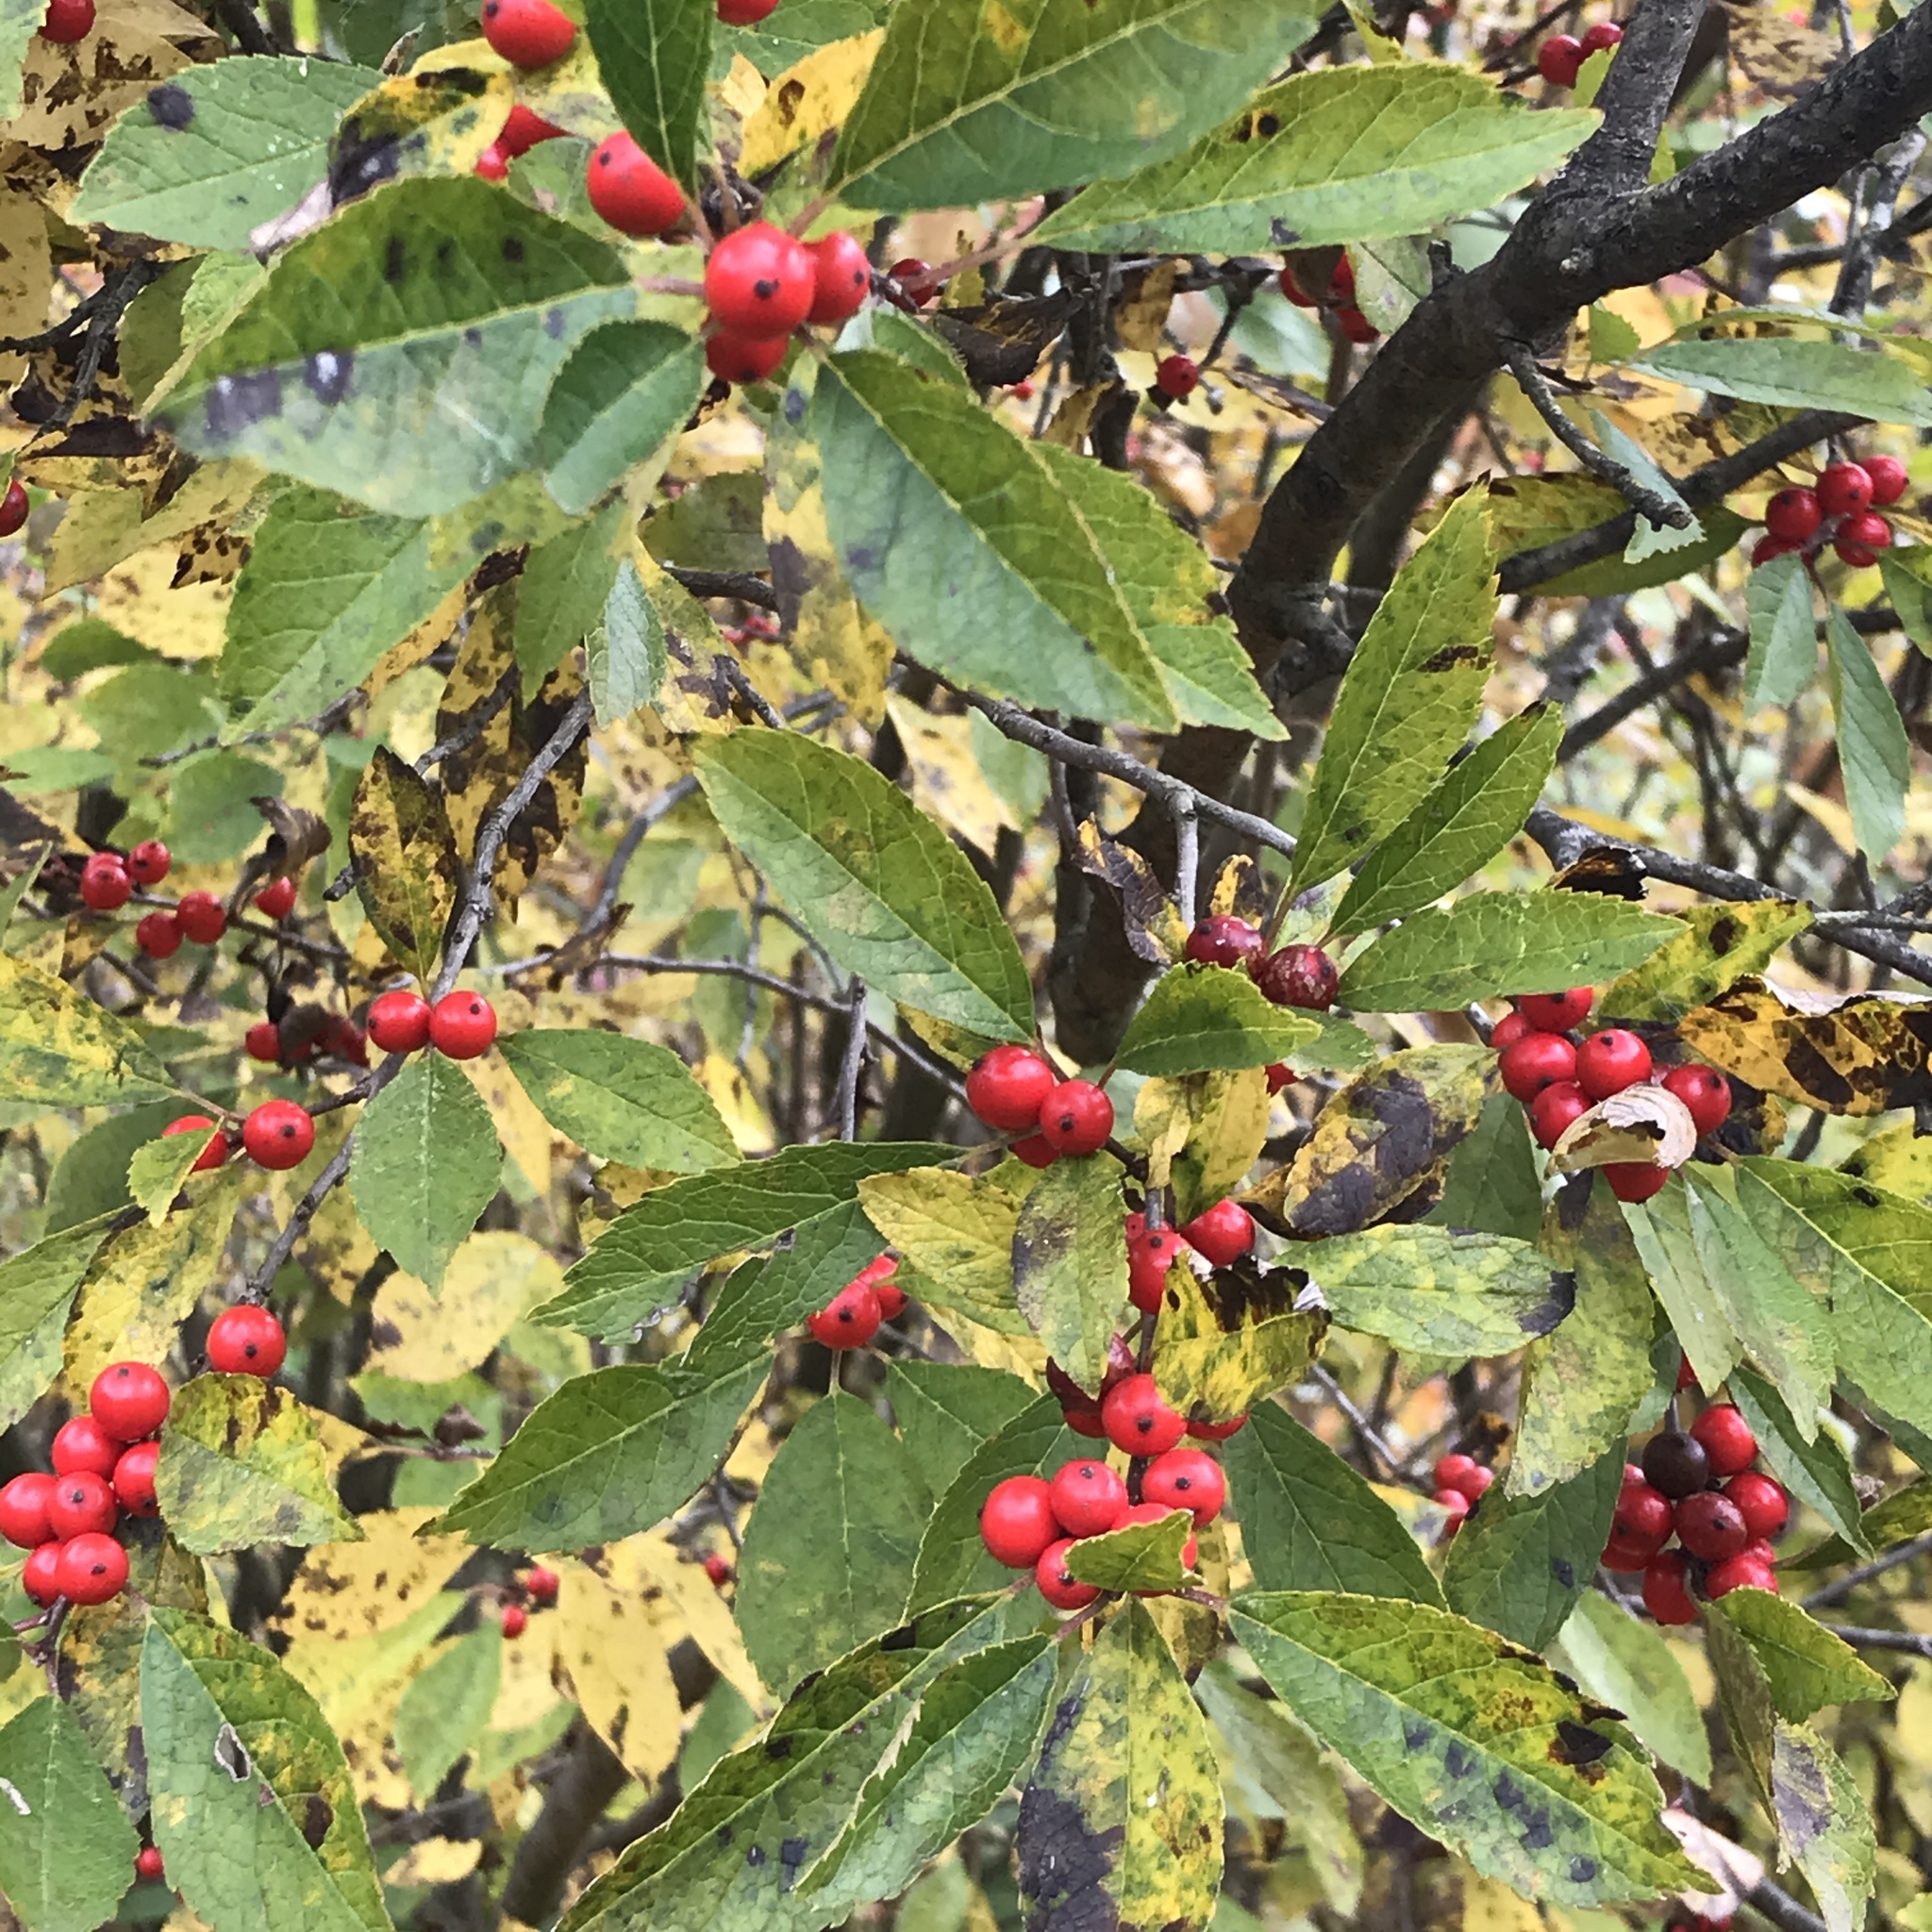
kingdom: Plantae
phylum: Tracheophyta
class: Magnoliopsida
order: Aquifoliales
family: Aquifoliaceae
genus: Ilex
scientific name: Ilex verticillata
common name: Virginia winterberry
